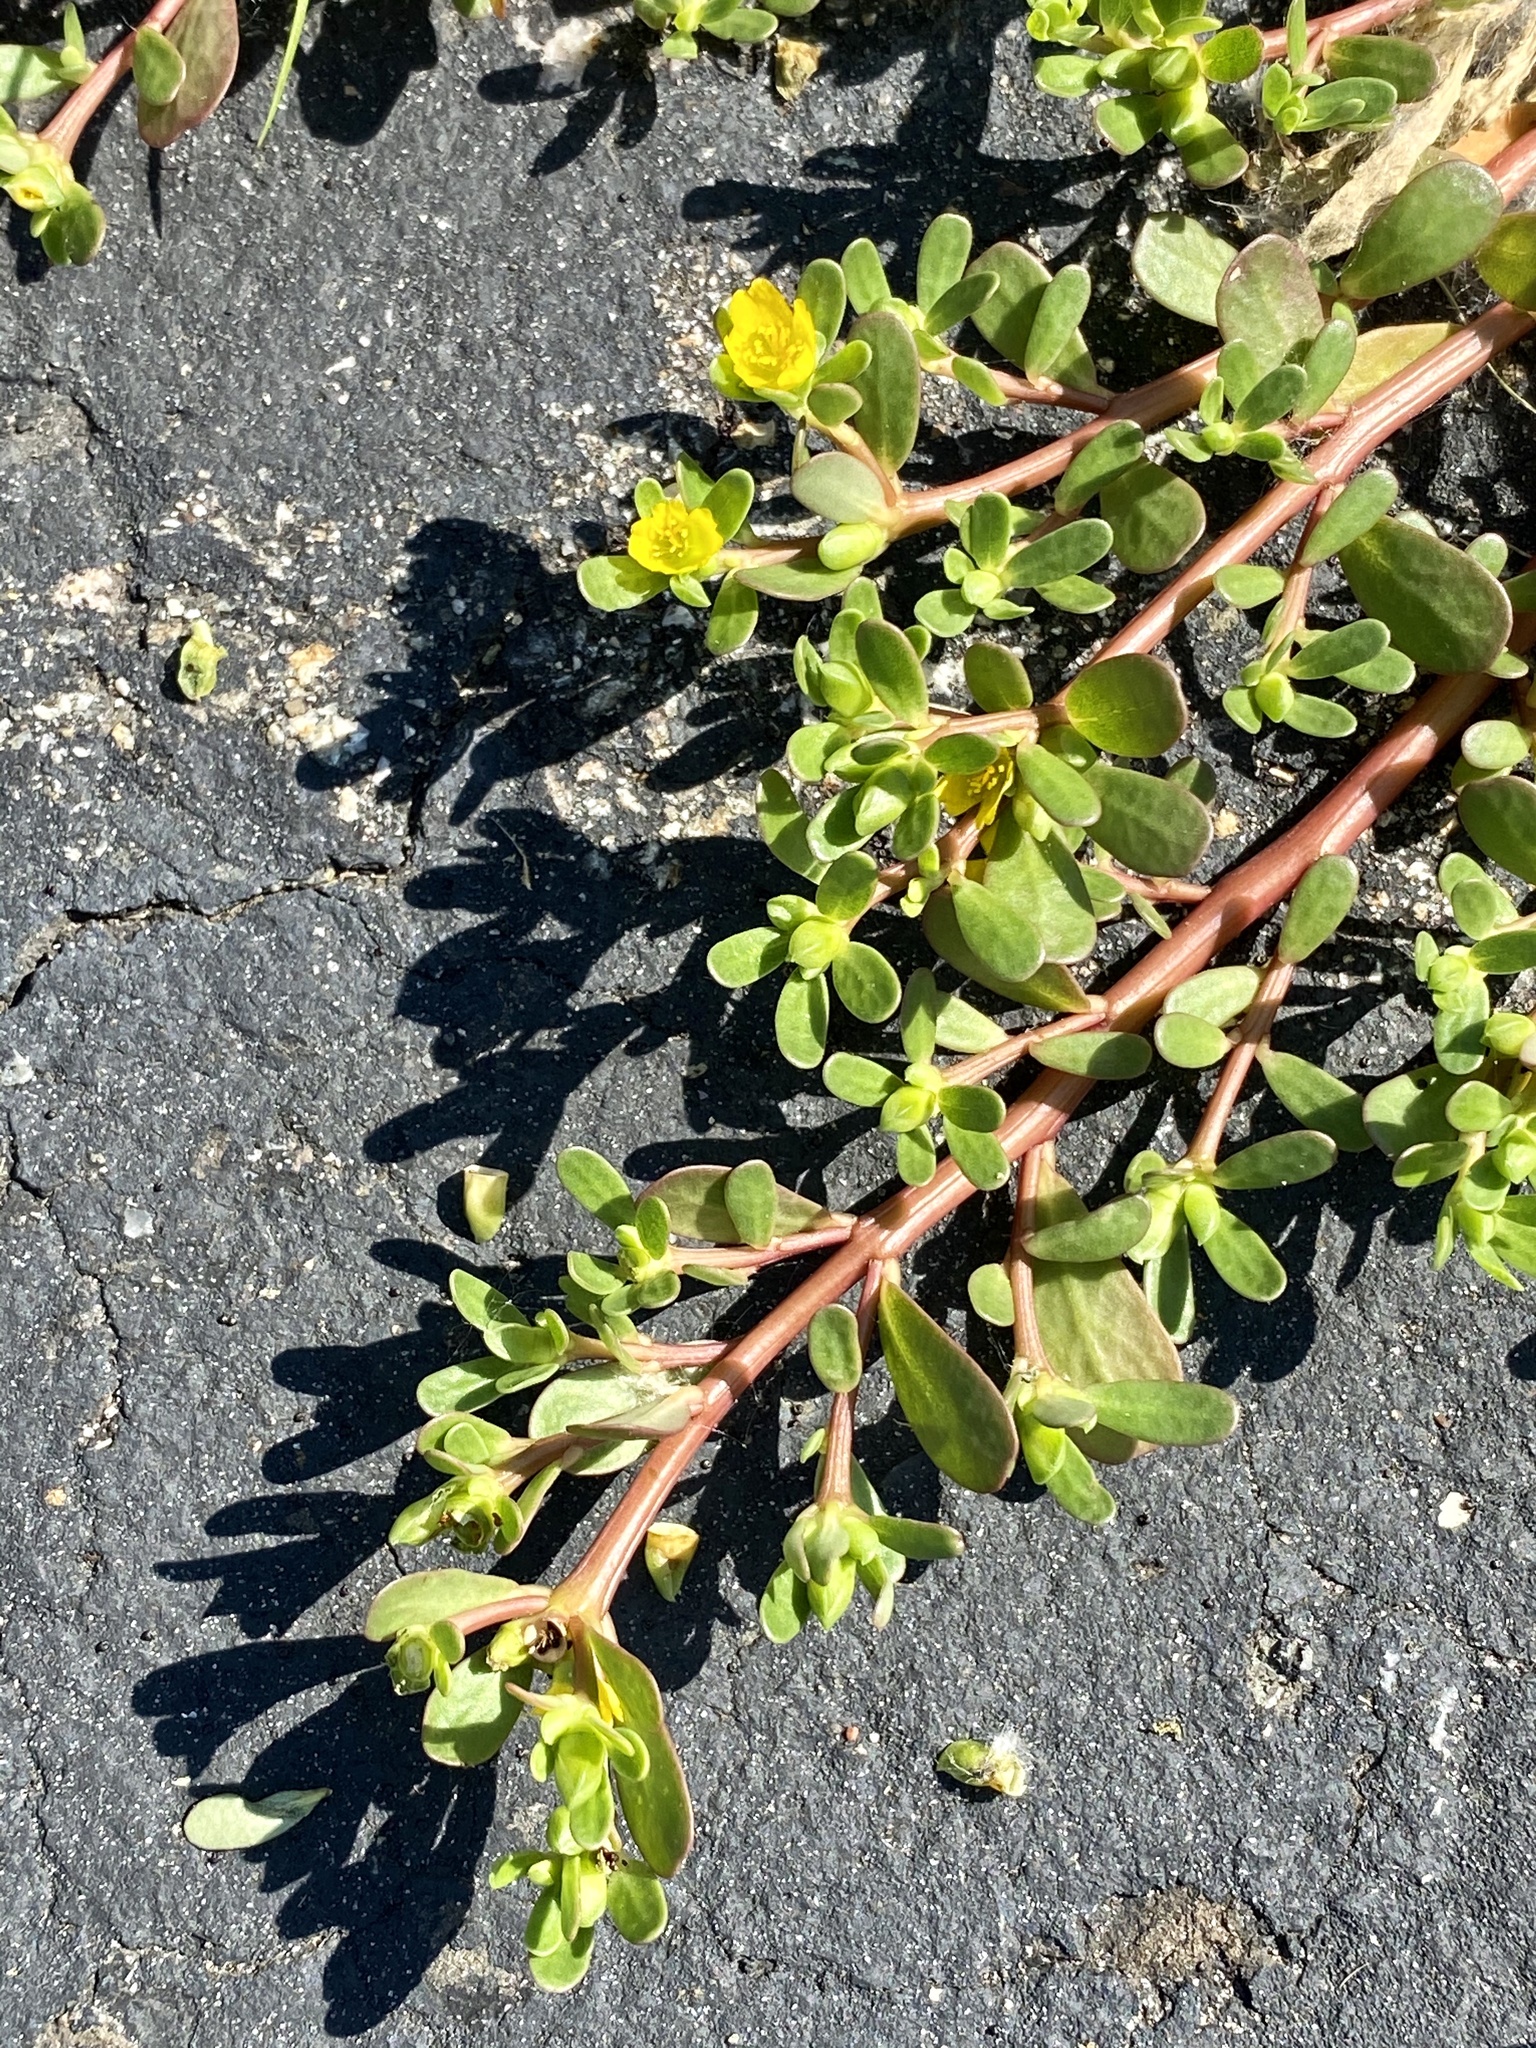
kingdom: Plantae
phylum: Tracheophyta
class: Magnoliopsida
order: Caryophyllales
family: Portulacaceae
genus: Portulaca
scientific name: Portulaca oleracea
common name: Common purslane
